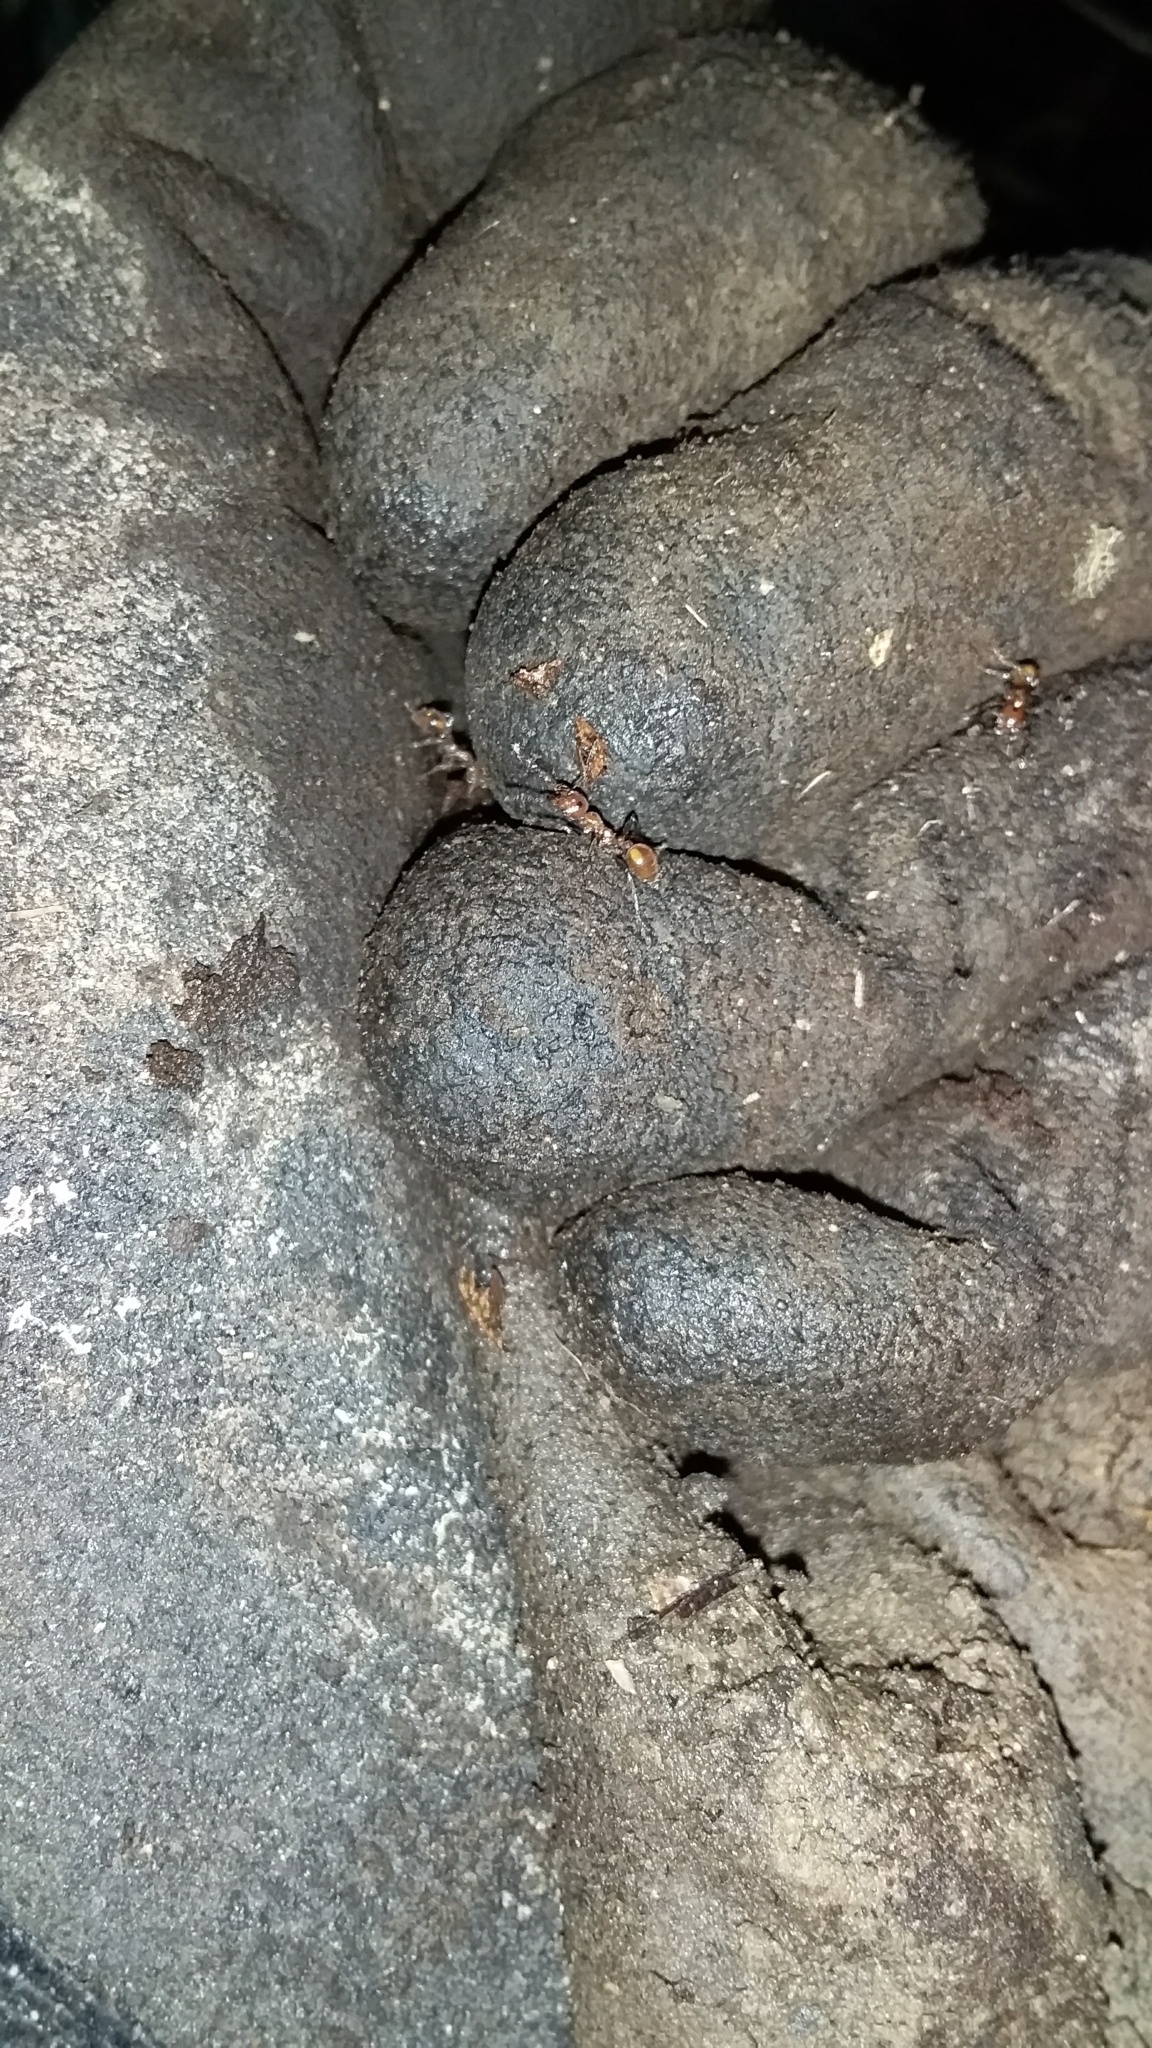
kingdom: Animalia
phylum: Arthropoda
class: Insecta
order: Hymenoptera
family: Formicidae
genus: Huberia
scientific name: Huberia striata
